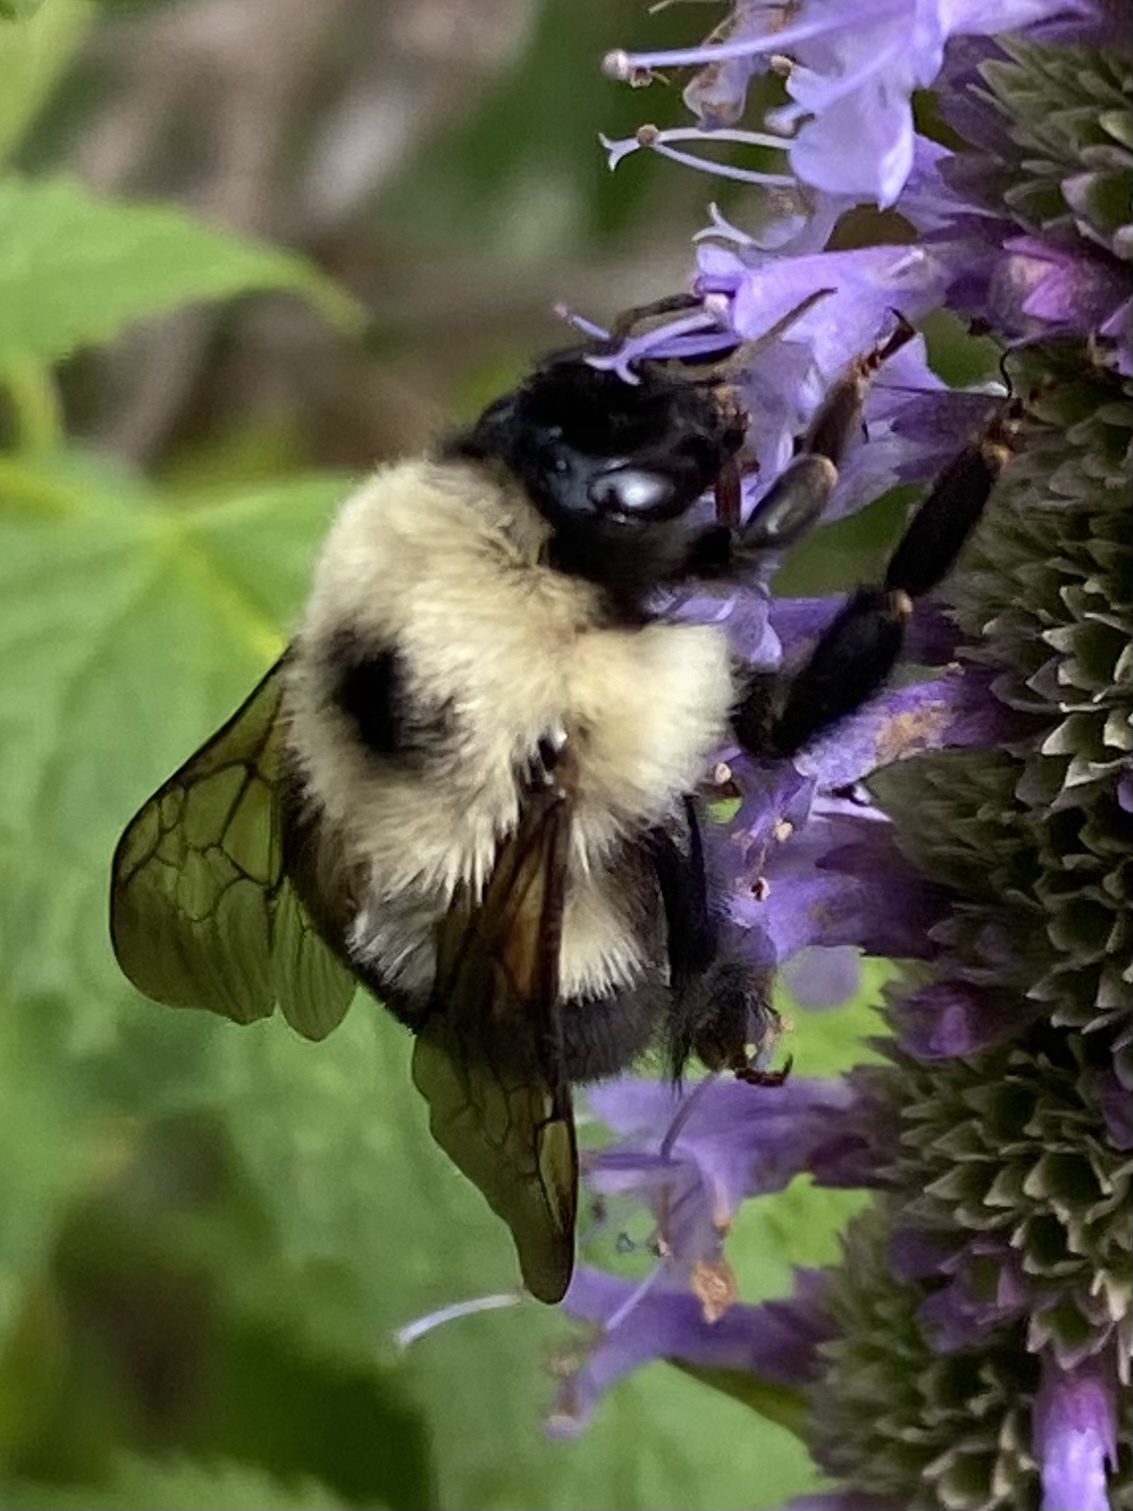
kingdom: Animalia
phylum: Arthropoda
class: Insecta
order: Hymenoptera
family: Apidae
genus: Bombus
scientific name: Bombus bimaculatus
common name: Two-spotted bumble bee
